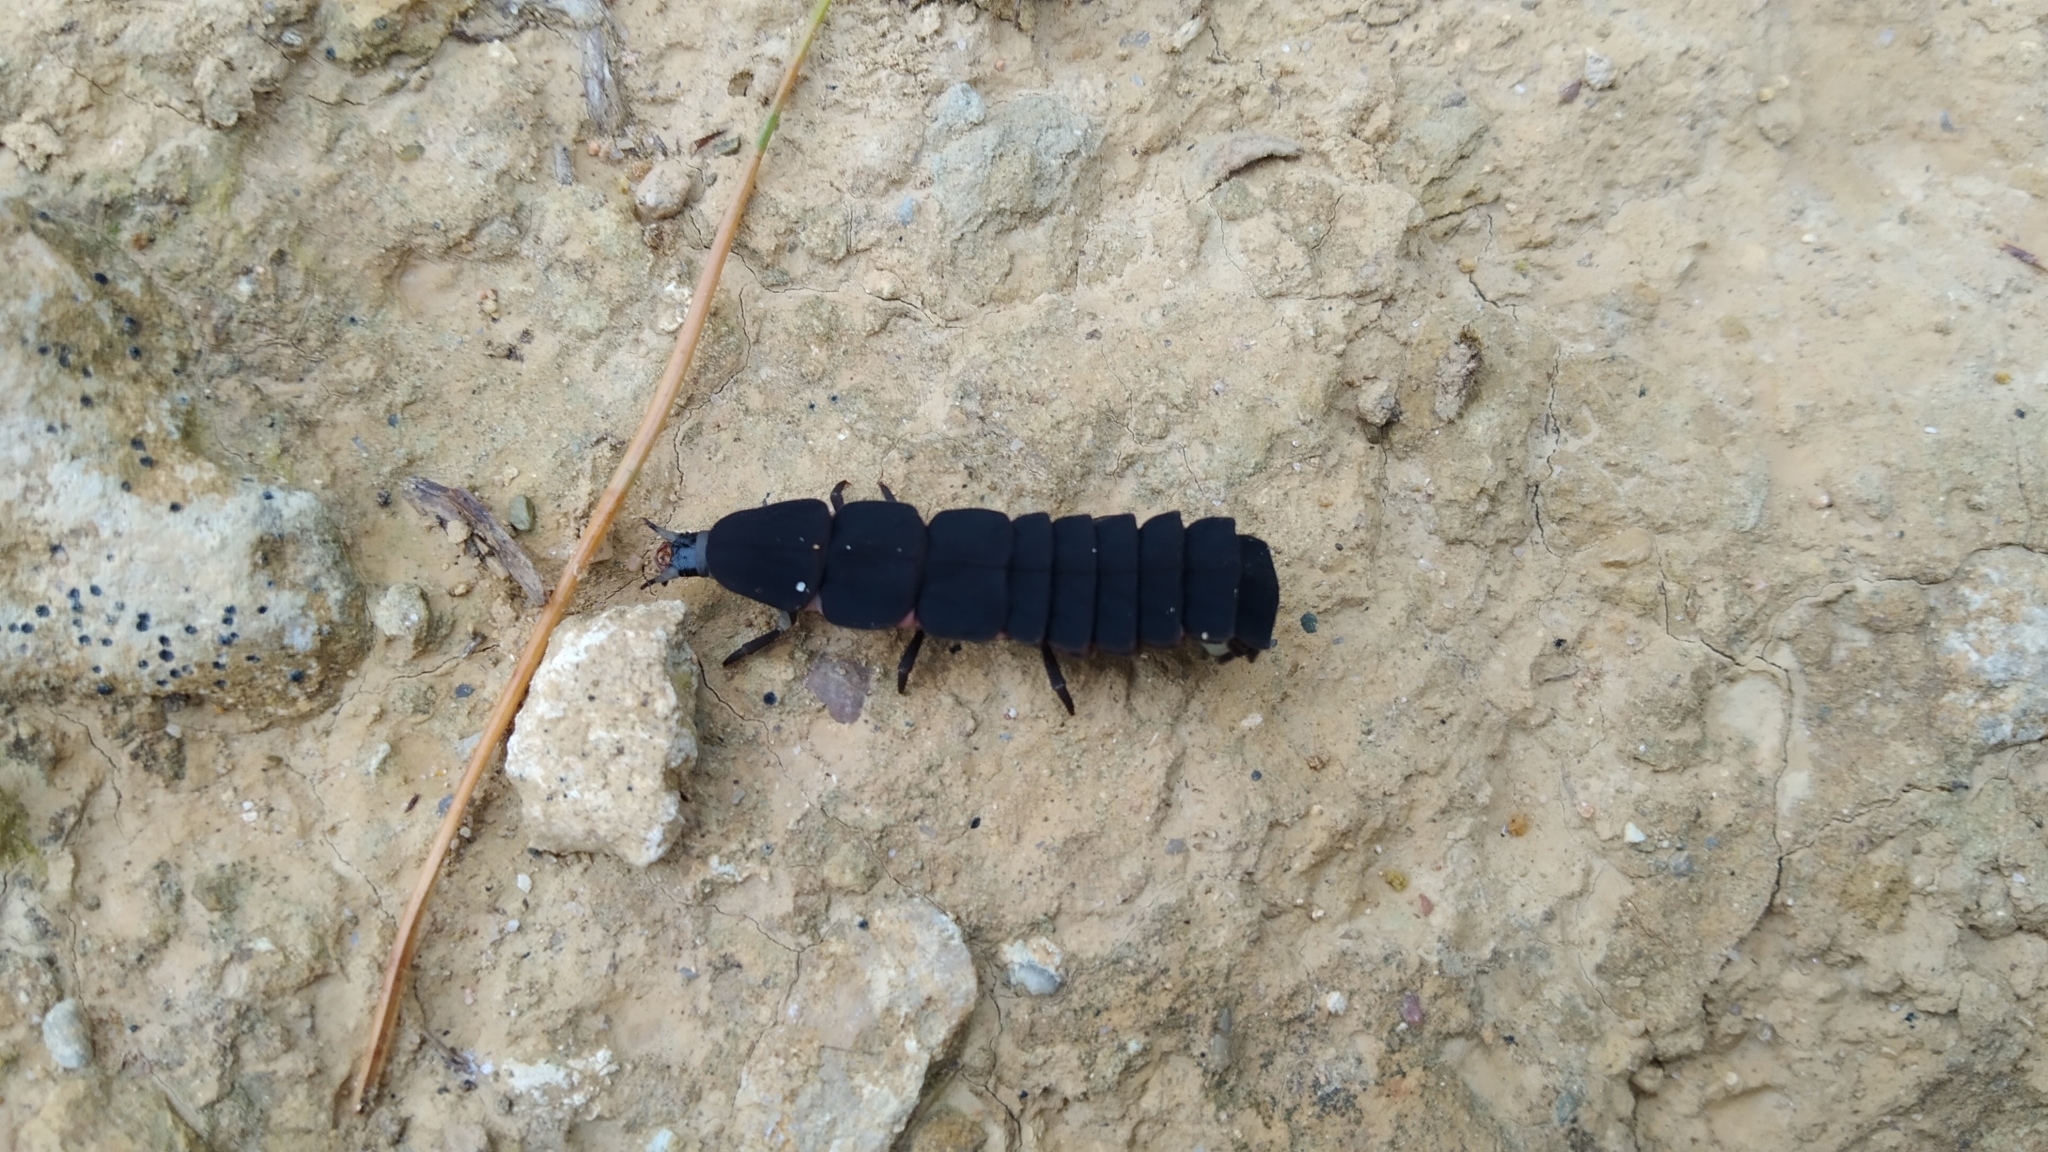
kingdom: Animalia
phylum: Arthropoda
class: Insecta
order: Coleoptera
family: Lampyridae
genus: Nyctophila
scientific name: Nyctophila reichii
